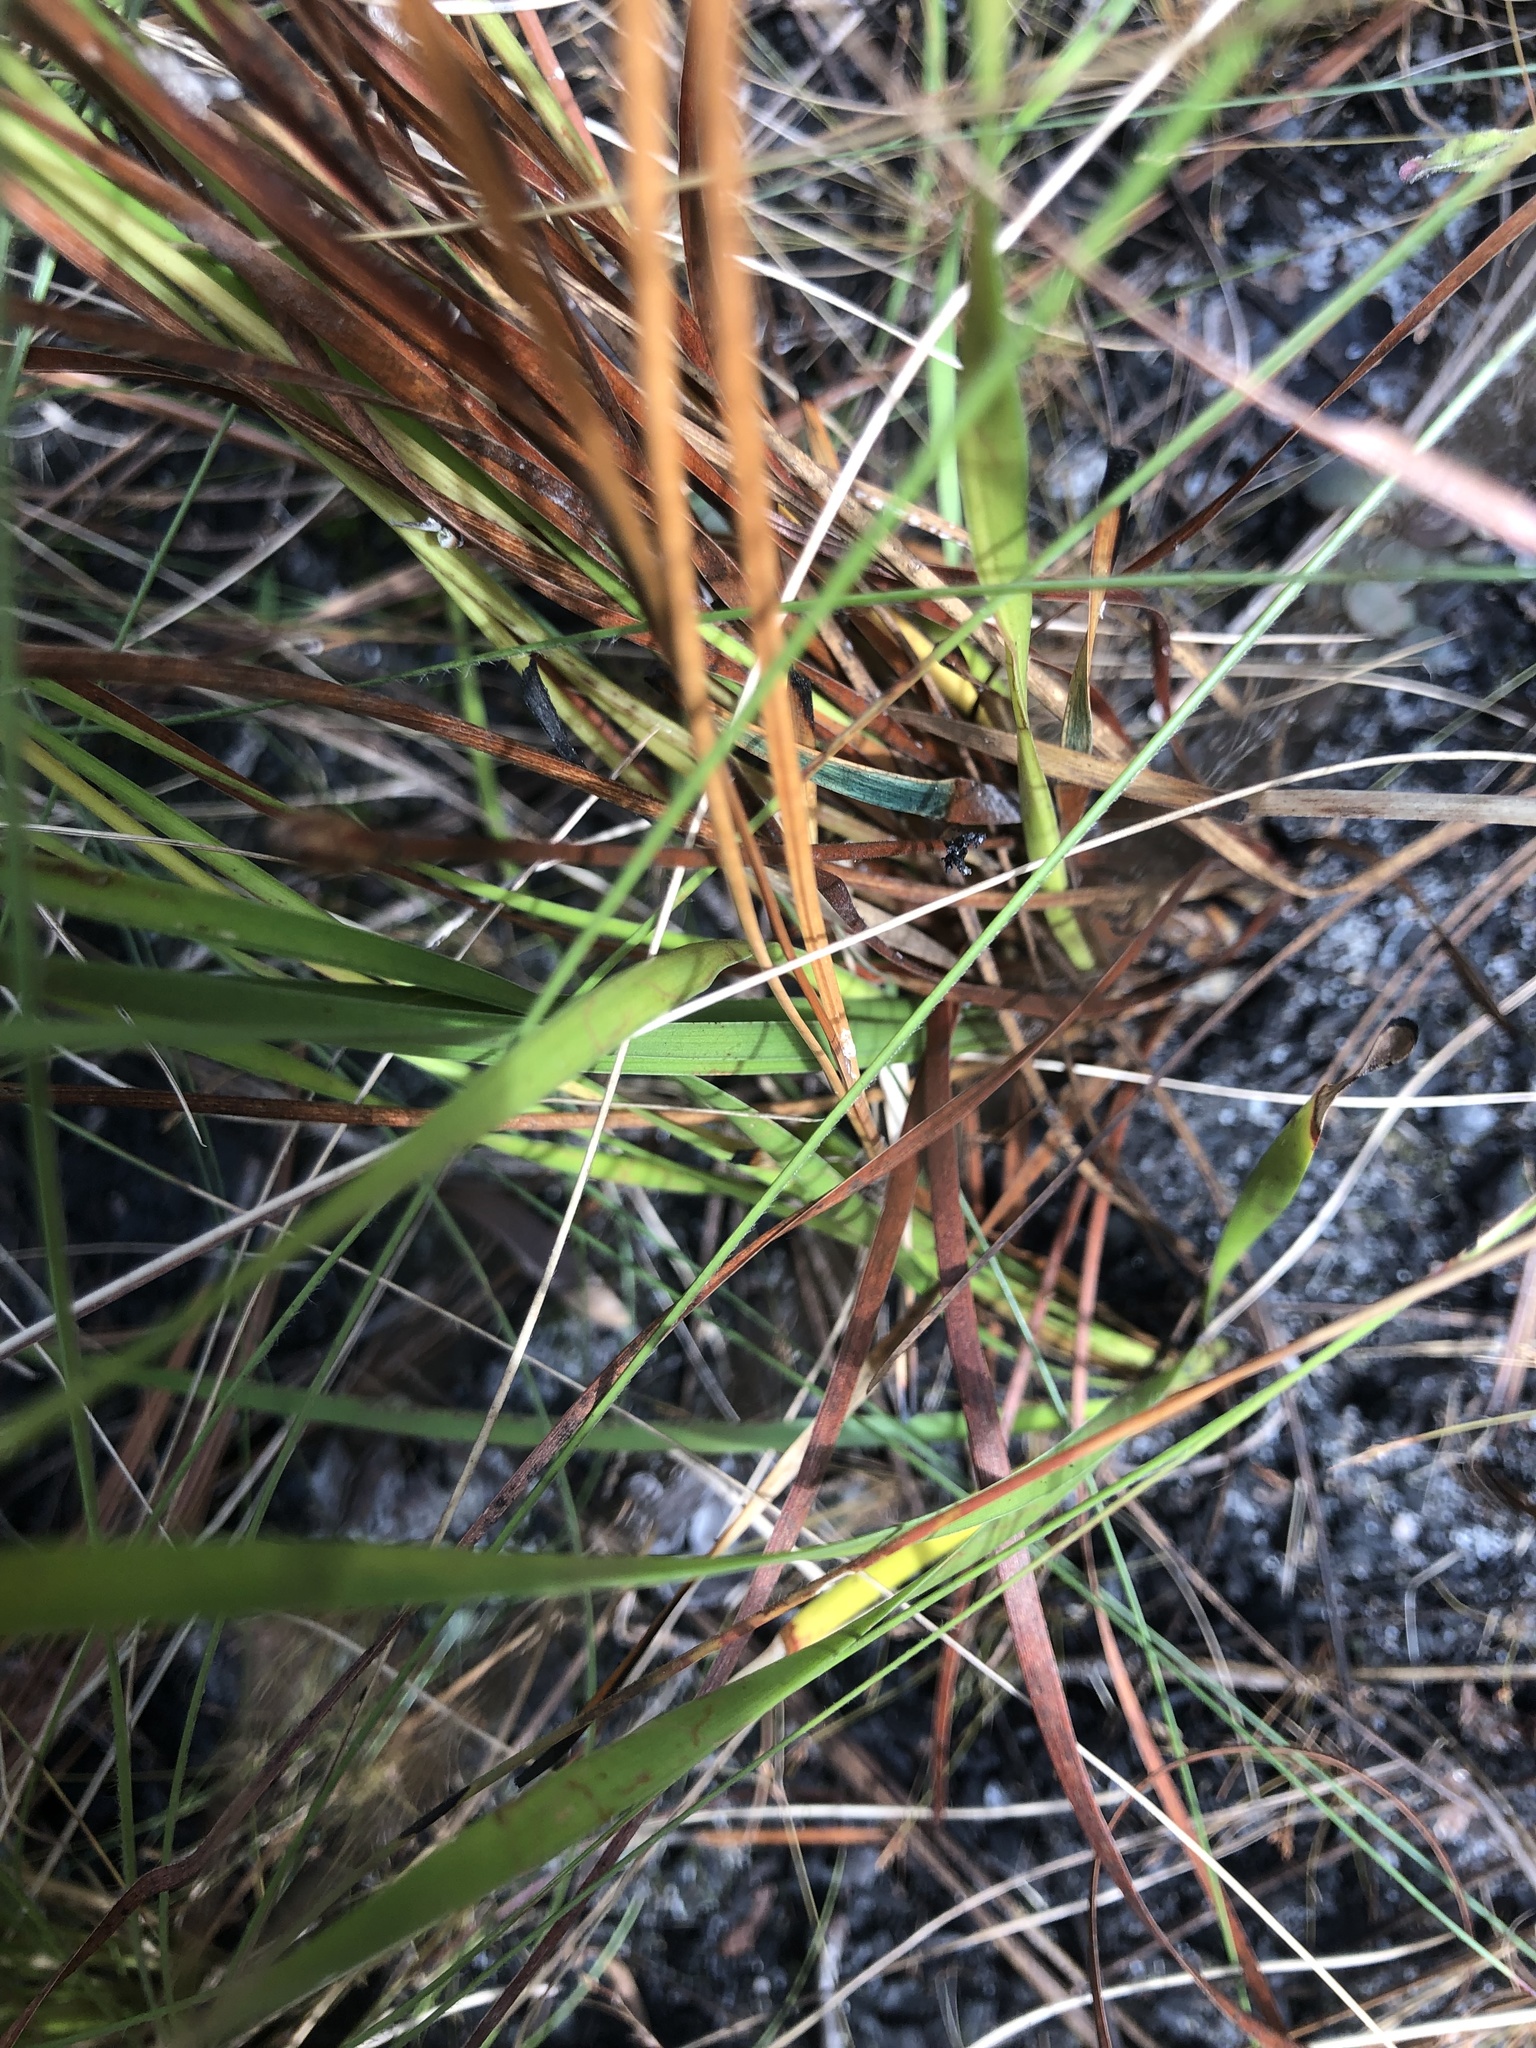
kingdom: Plantae
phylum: Tracheophyta
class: Liliopsida
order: Poales
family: Xyridaceae
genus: Xyris
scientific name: Xyris caroliniana
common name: Carolina yellow-eyed-grass
